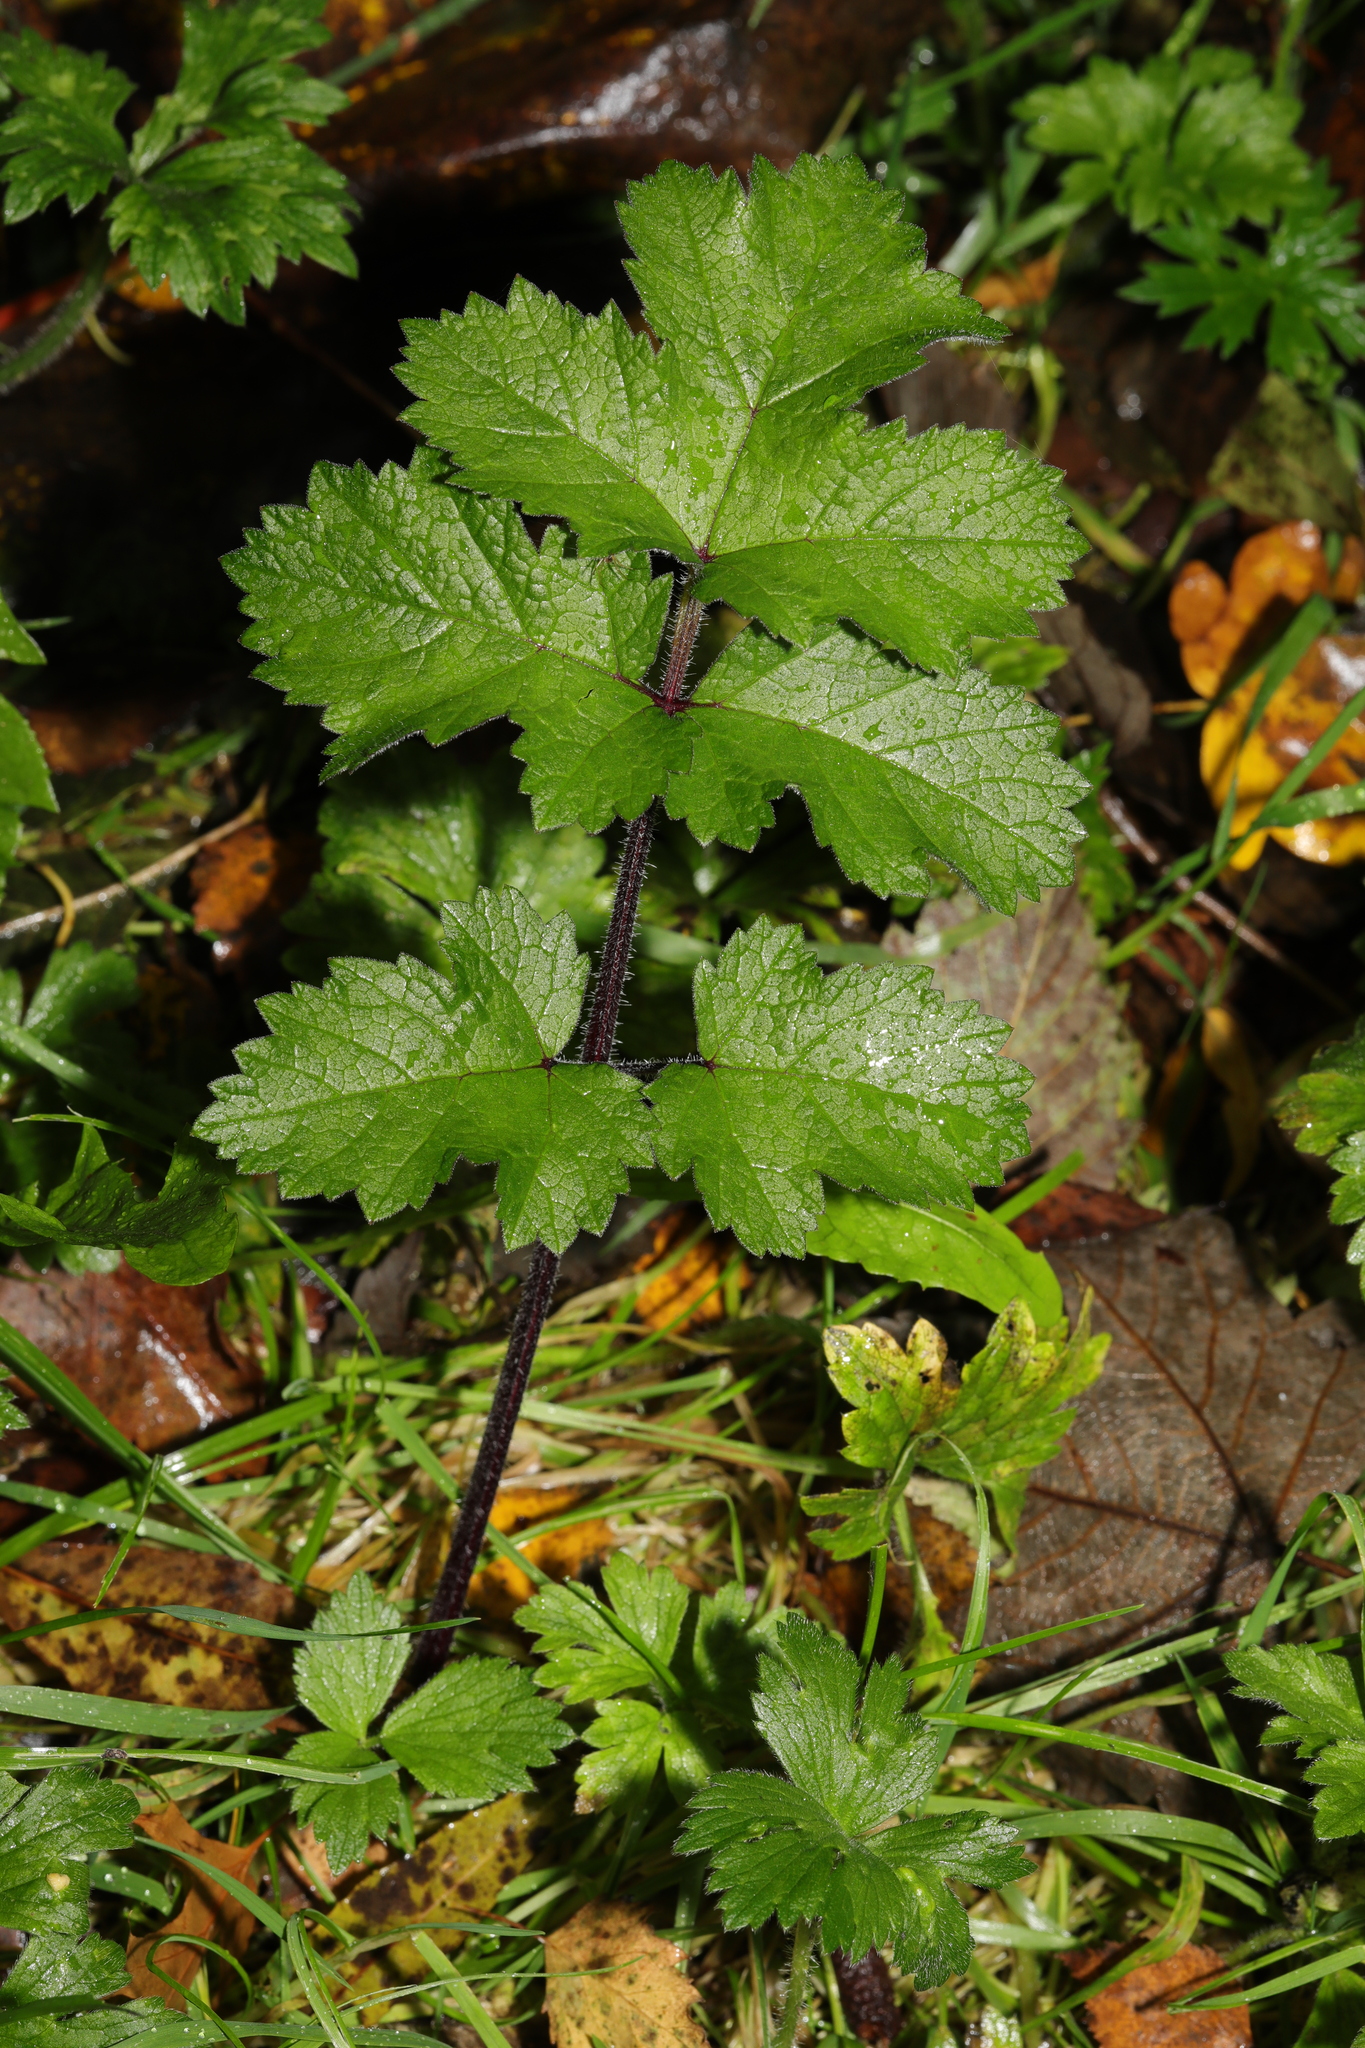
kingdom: Plantae
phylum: Tracheophyta
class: Magnoliopsida
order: Apiales
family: Apiaceae
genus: Heracleum
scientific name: Heracleum sphondylium
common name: Hogweed
